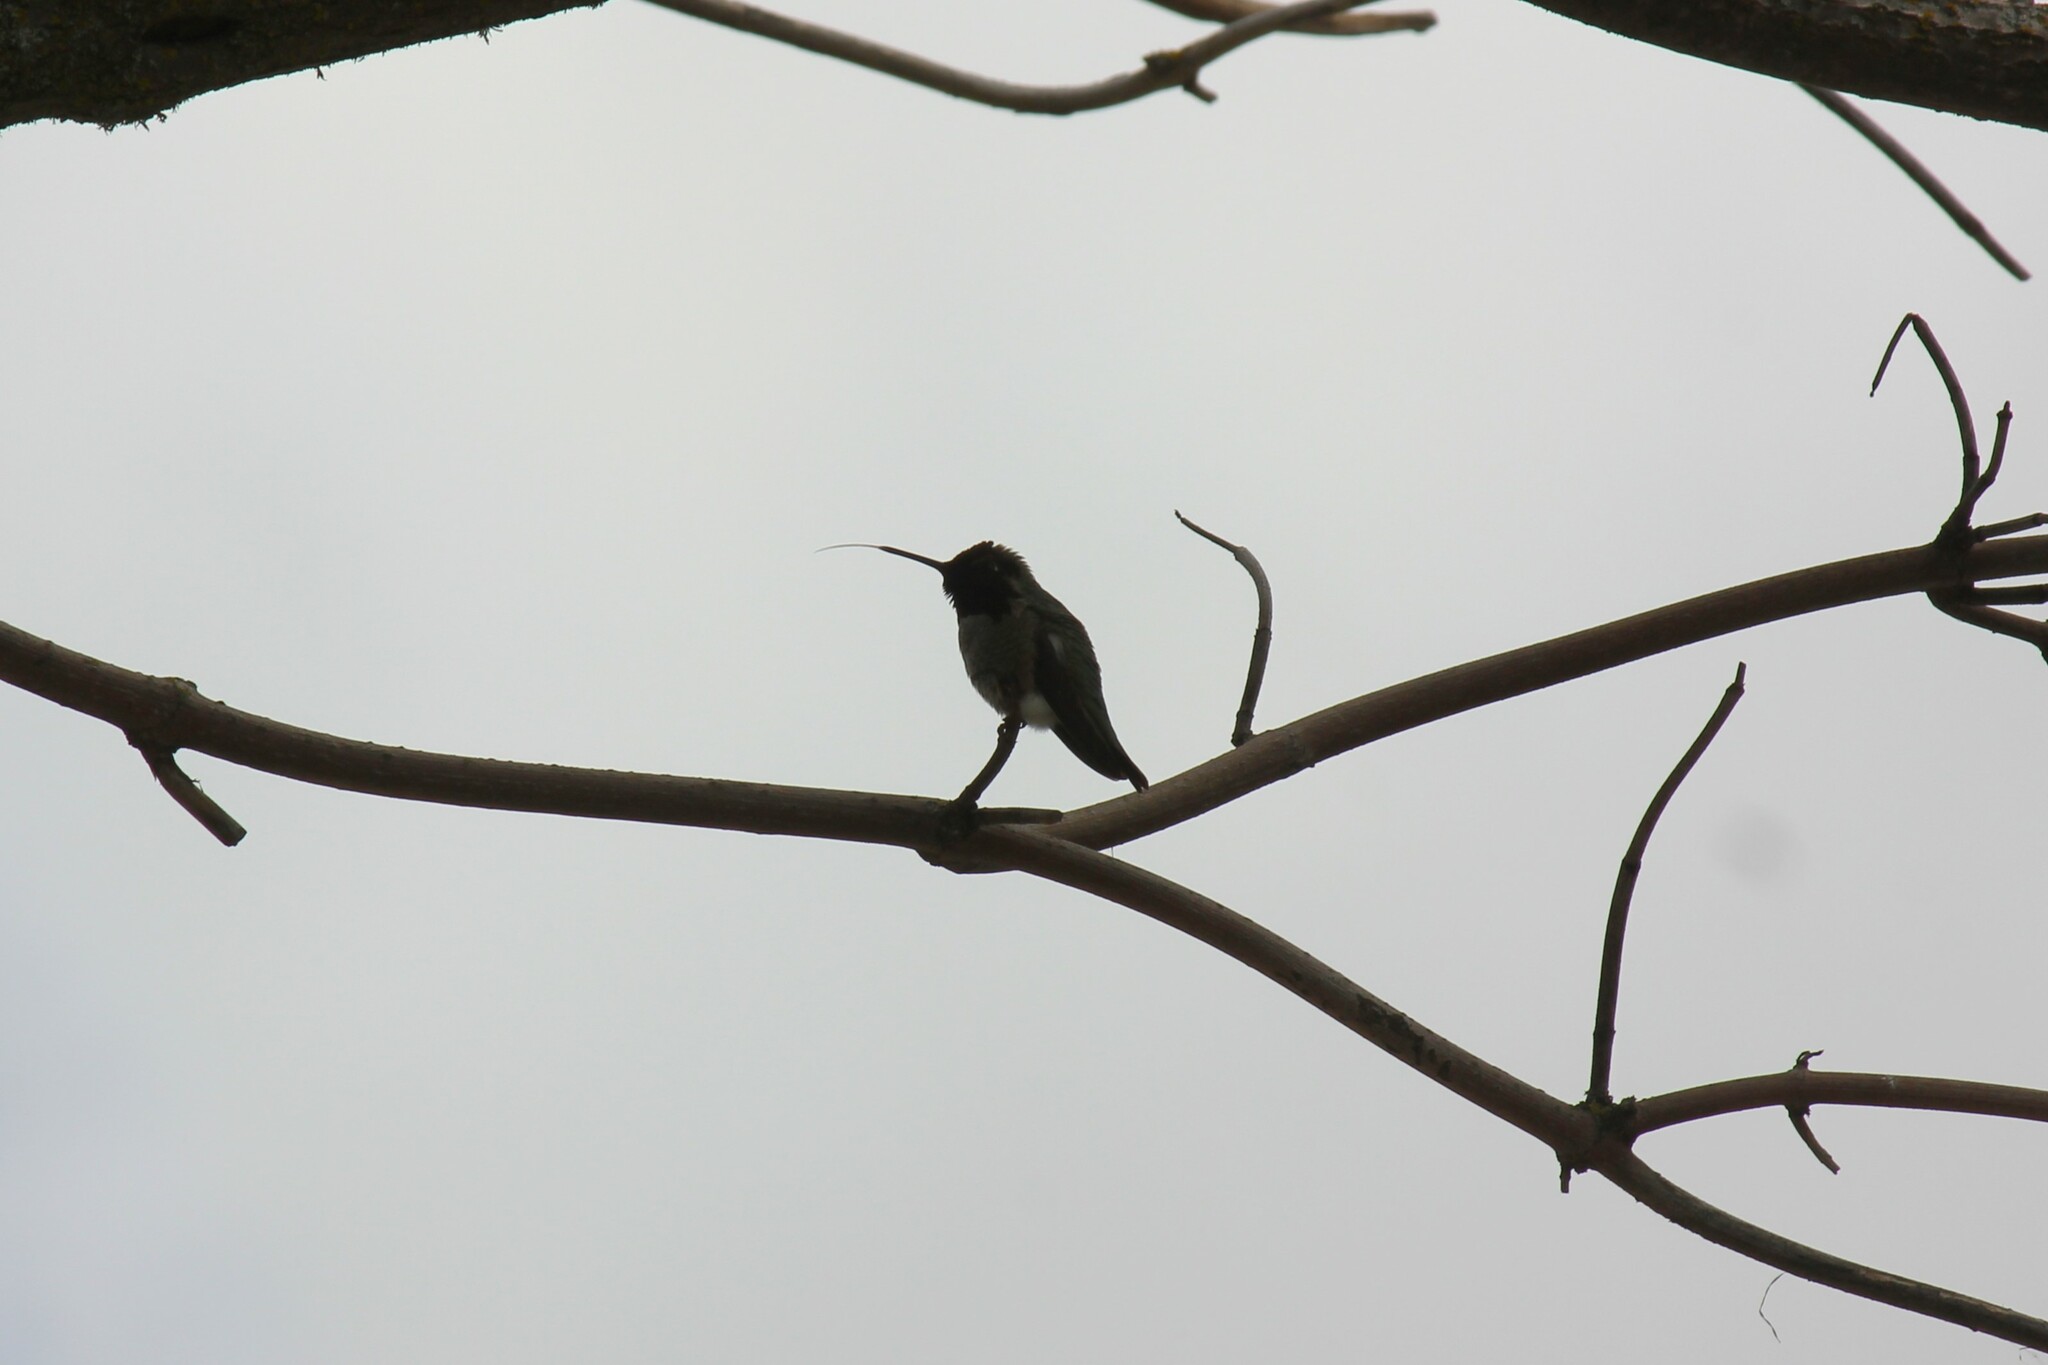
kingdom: Animalia
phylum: Chordata
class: Aves
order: Apodiformes
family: Trochilidae
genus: Calypte
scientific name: Calypte anna
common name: Anna's hummingbird
